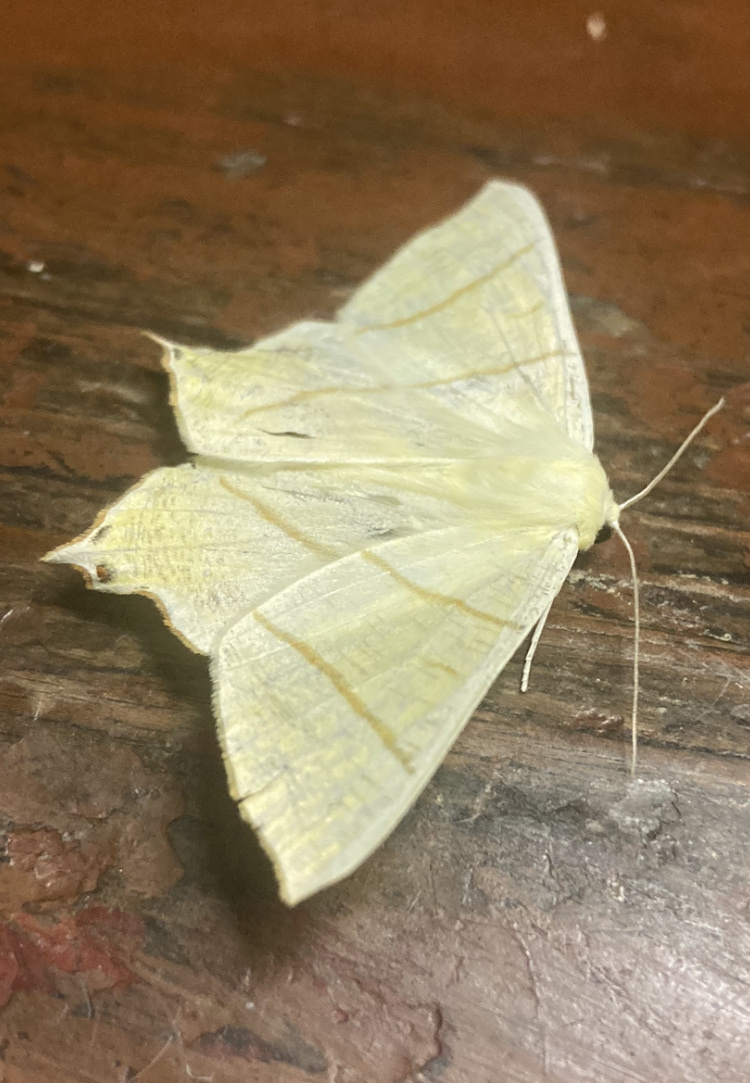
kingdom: Animalia
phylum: Arthropoda
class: Insecta
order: Lepidoptera
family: Geometridae
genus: Ourapteryx
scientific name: Ourapteryx sambucaria
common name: Swallow-tailed moth
